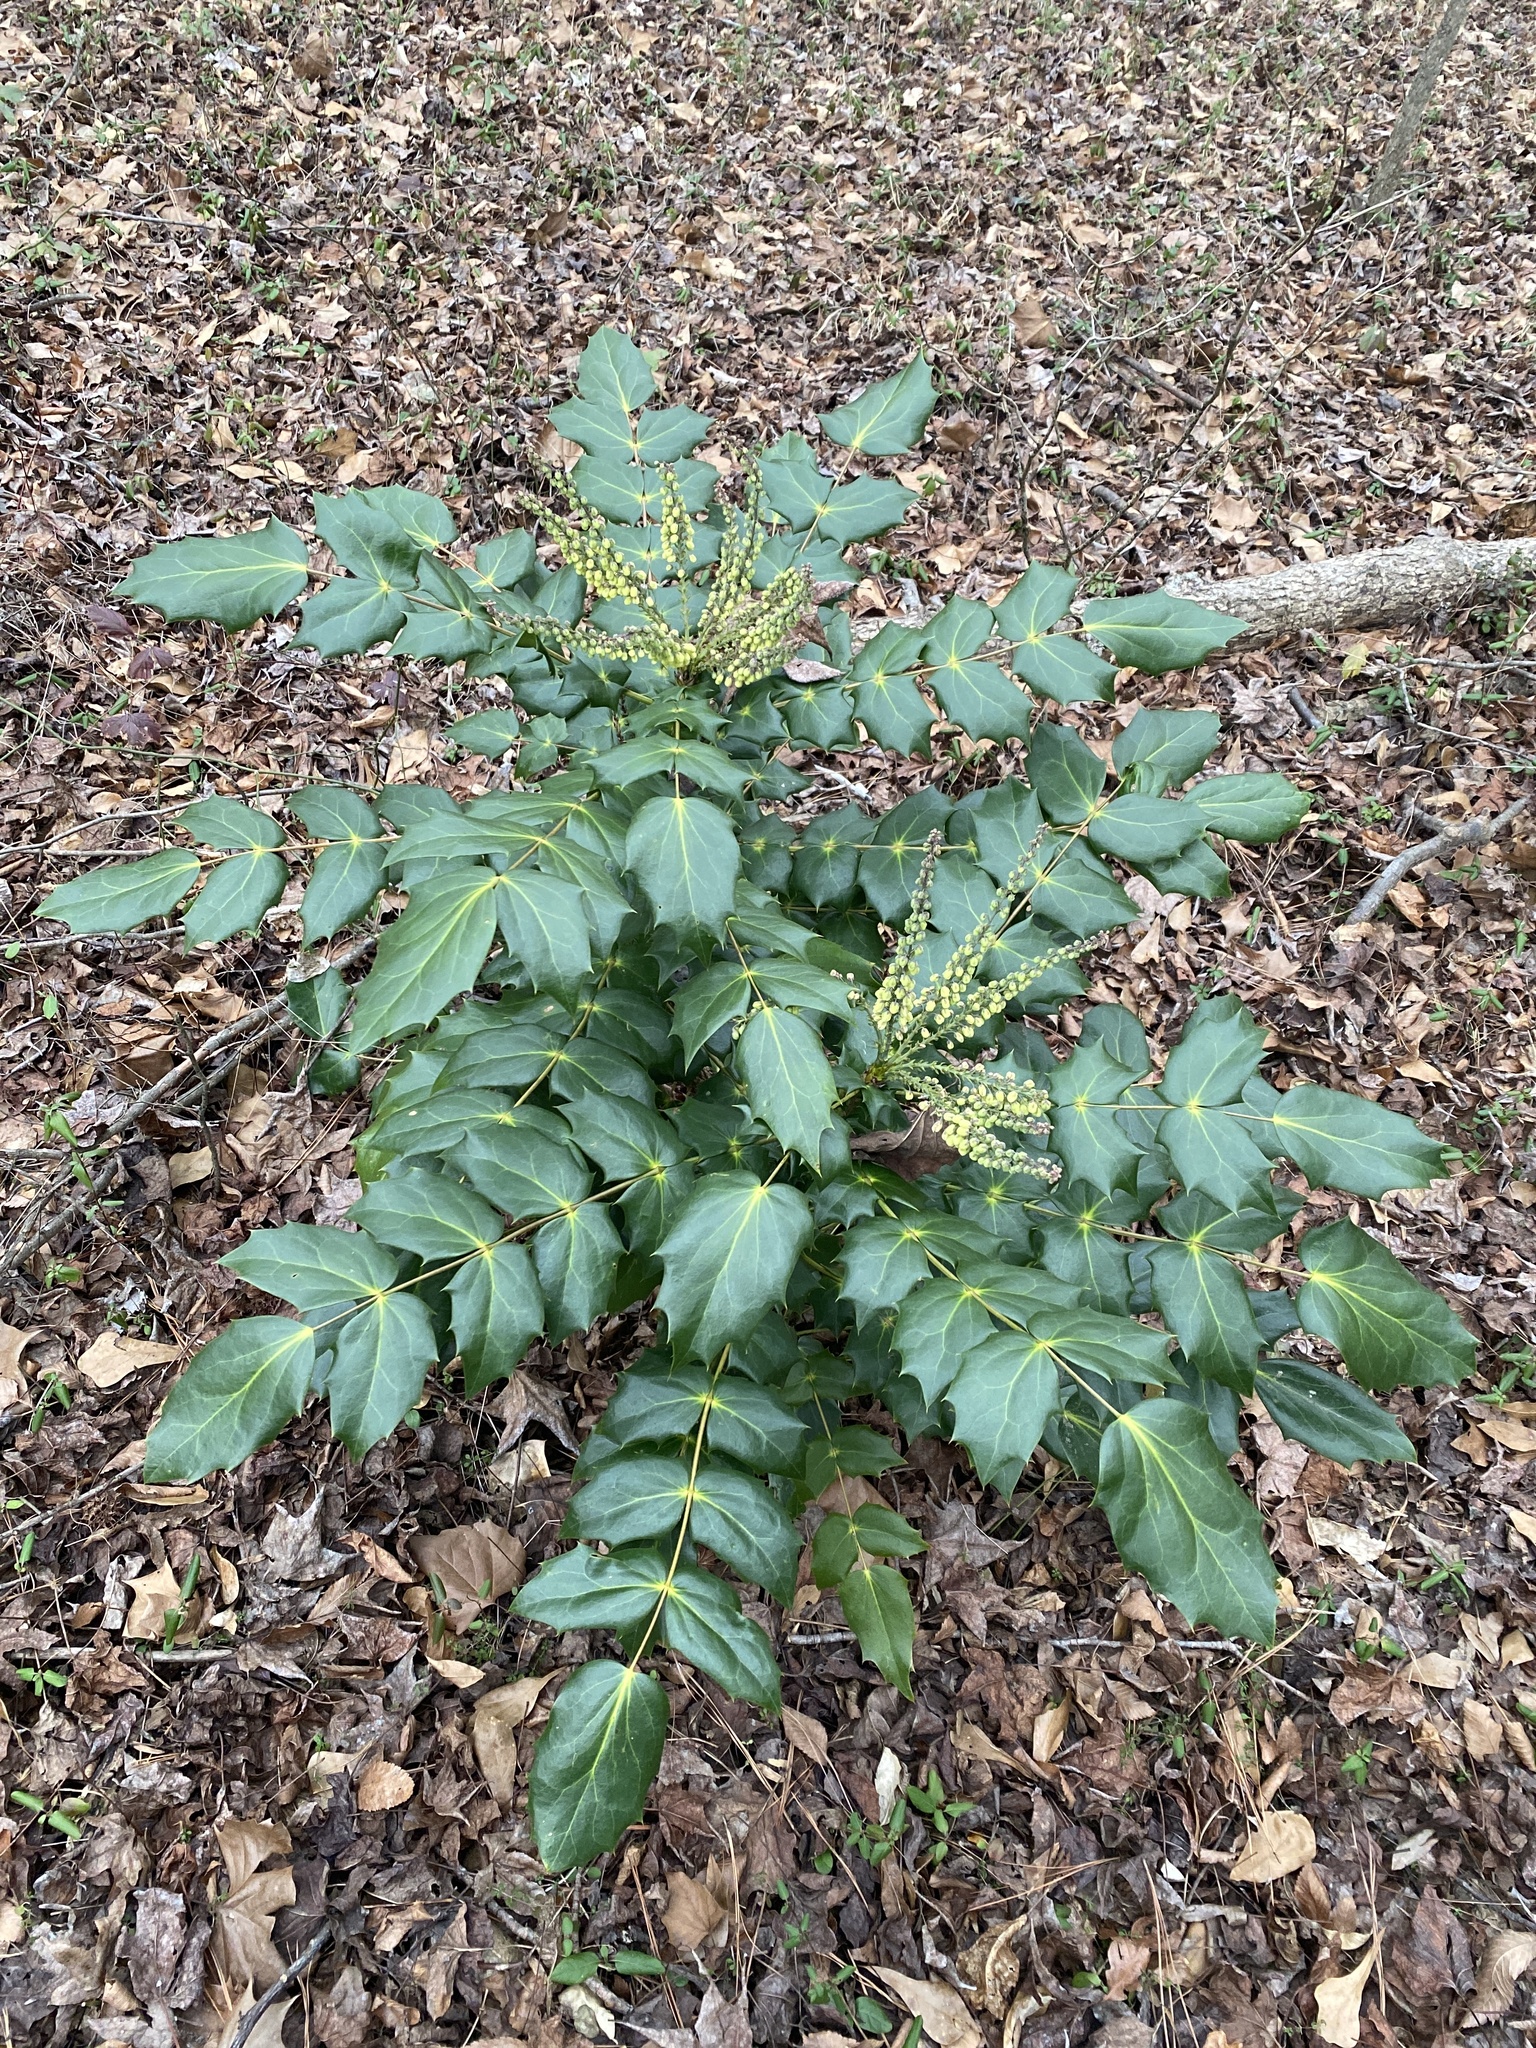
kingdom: Plantae
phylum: Tracheophyta
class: Magnoliopsida
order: Ranunculales
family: Berberidaceae
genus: Mahonia
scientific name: Mahonia bealei
